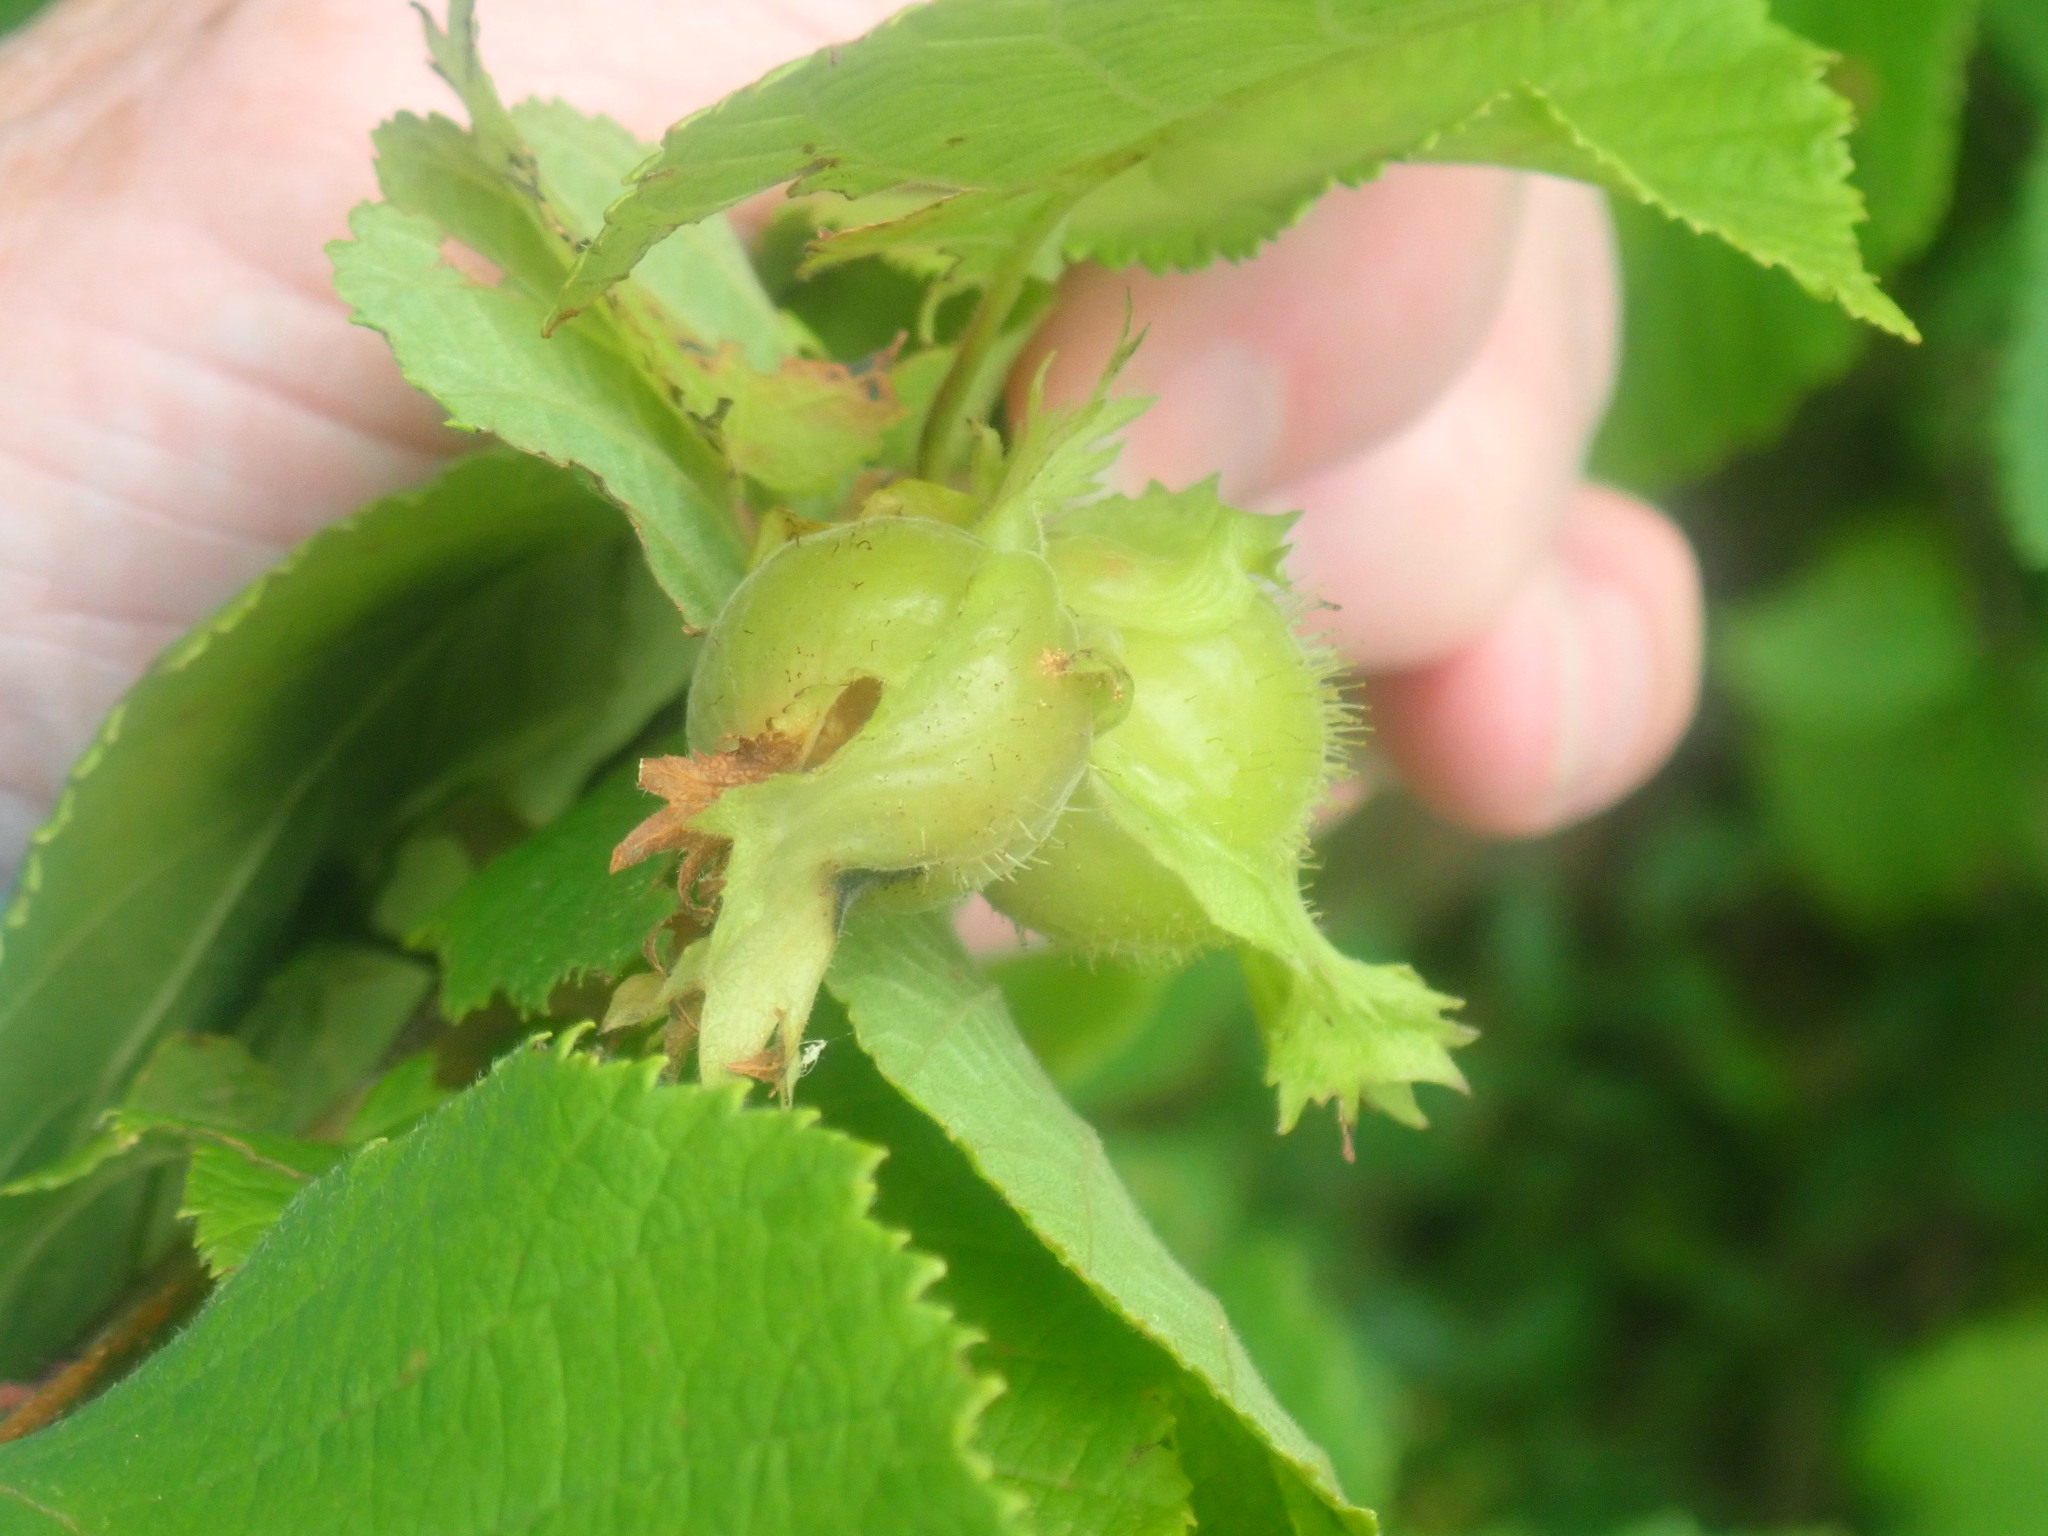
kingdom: Plantae
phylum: Tracheophyta
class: Magnoliopsida
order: Fagales
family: Betulaceae
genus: Corylus
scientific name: Corylus americana
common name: American hazel
